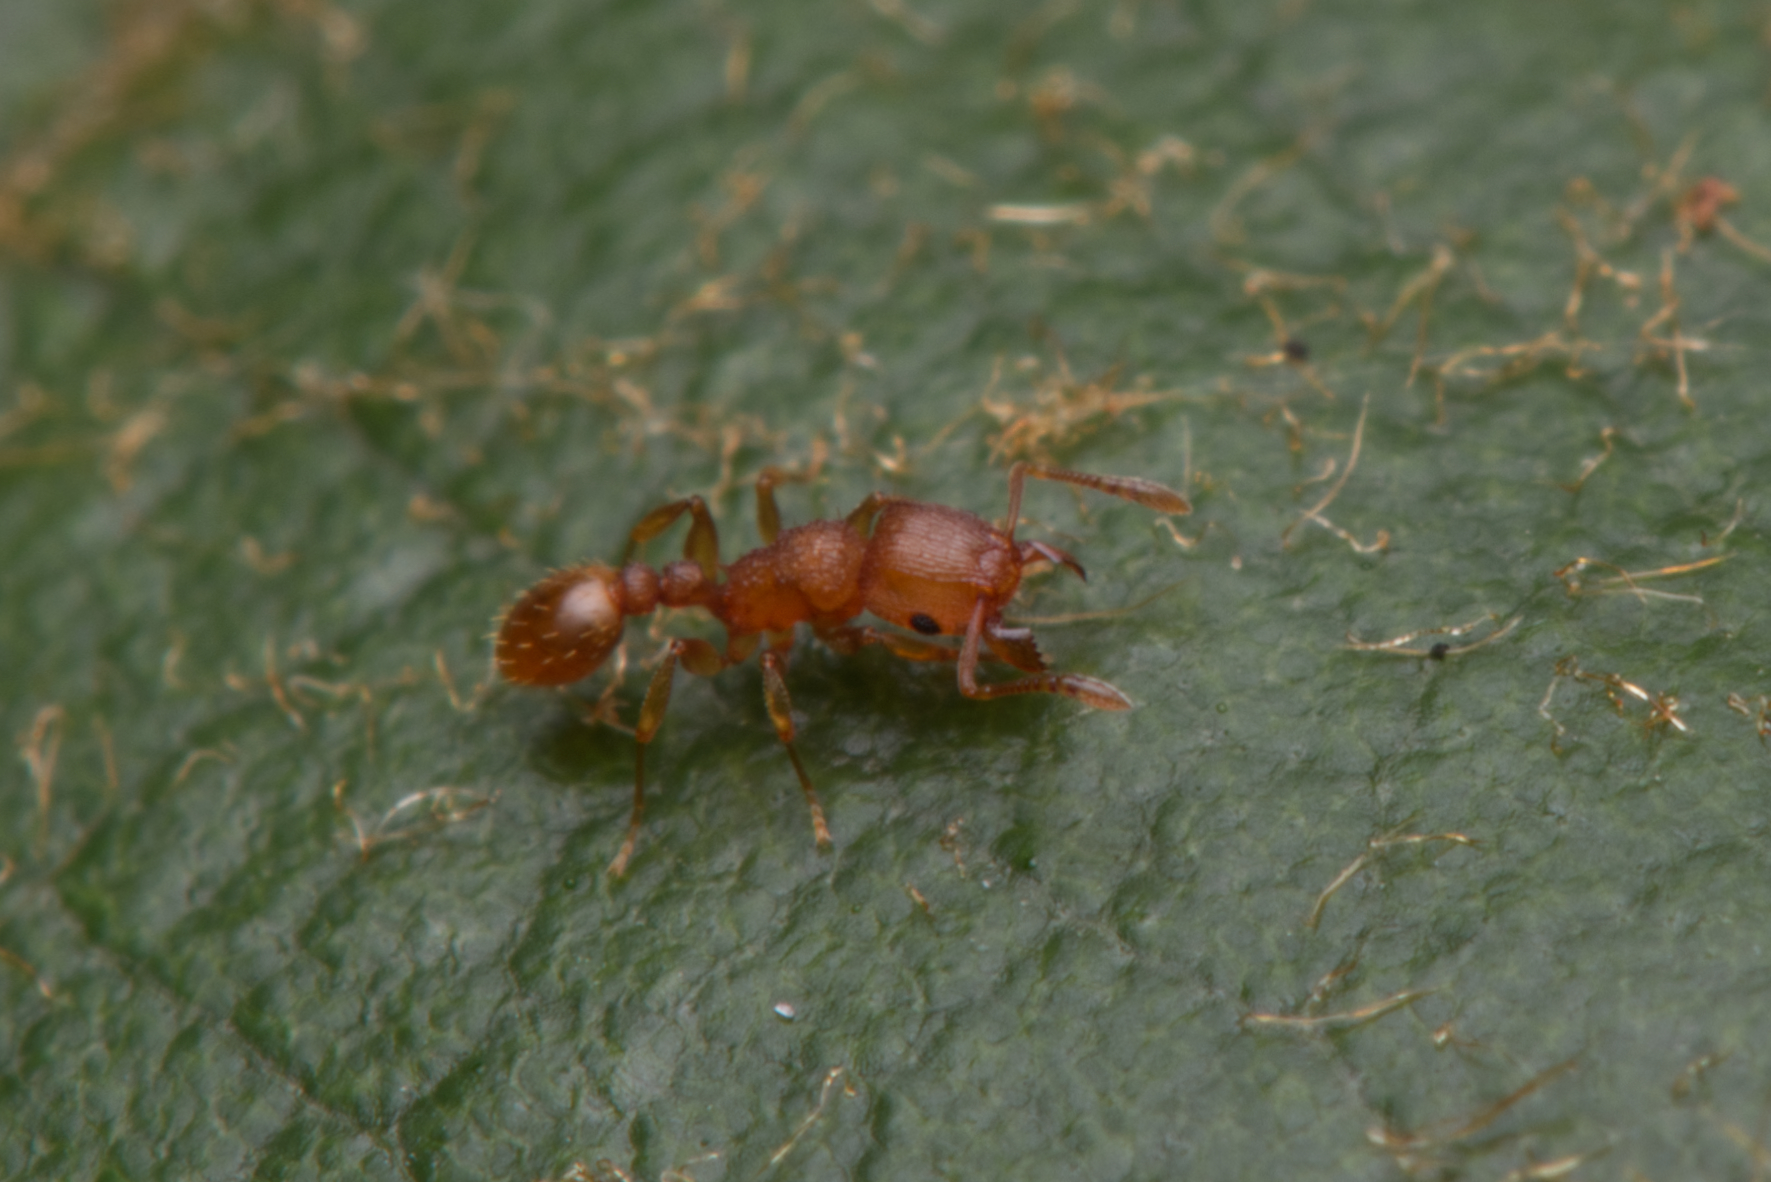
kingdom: Animalia
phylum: Arthropoda
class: Insecta
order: Hymenoptera
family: Formicidae
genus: Tetramorium
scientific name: Tetramorium simillimum
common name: Ant
